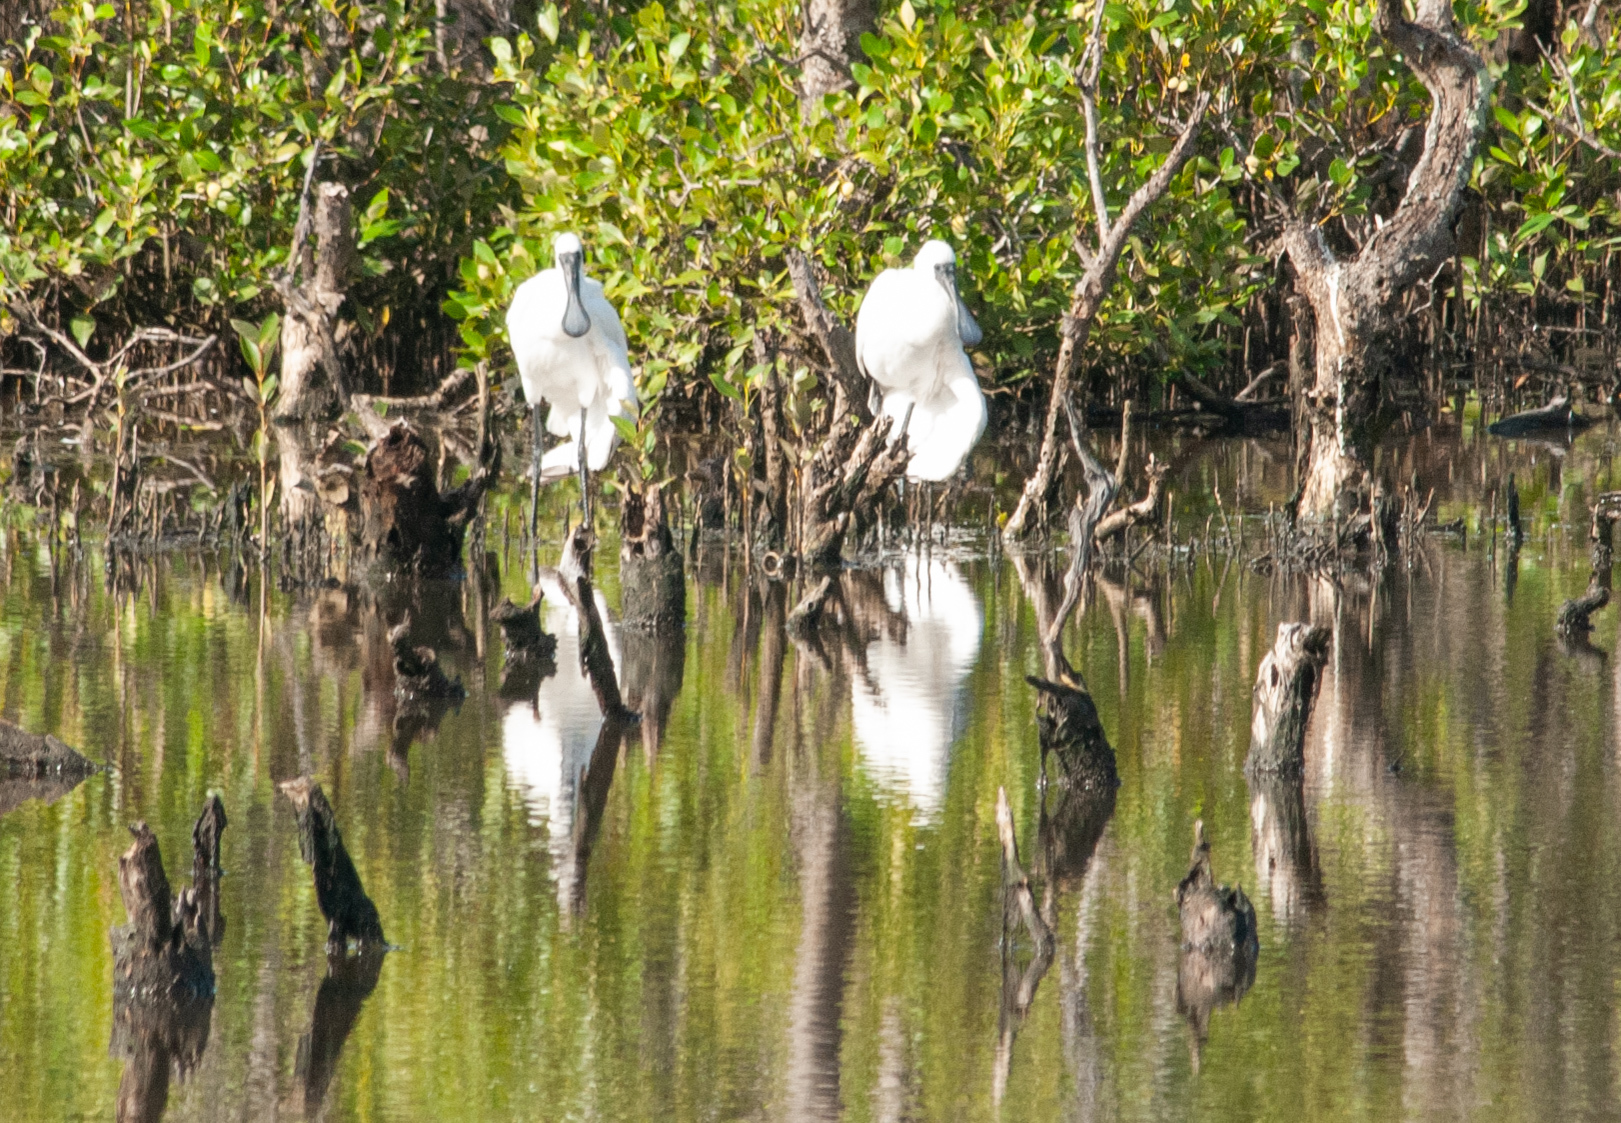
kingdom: Animalia
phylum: Chordata
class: Aves
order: Pelecaniformes
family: Threskiornithidae
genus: Platalea
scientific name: Platalea regia
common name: Royal spoonbill
